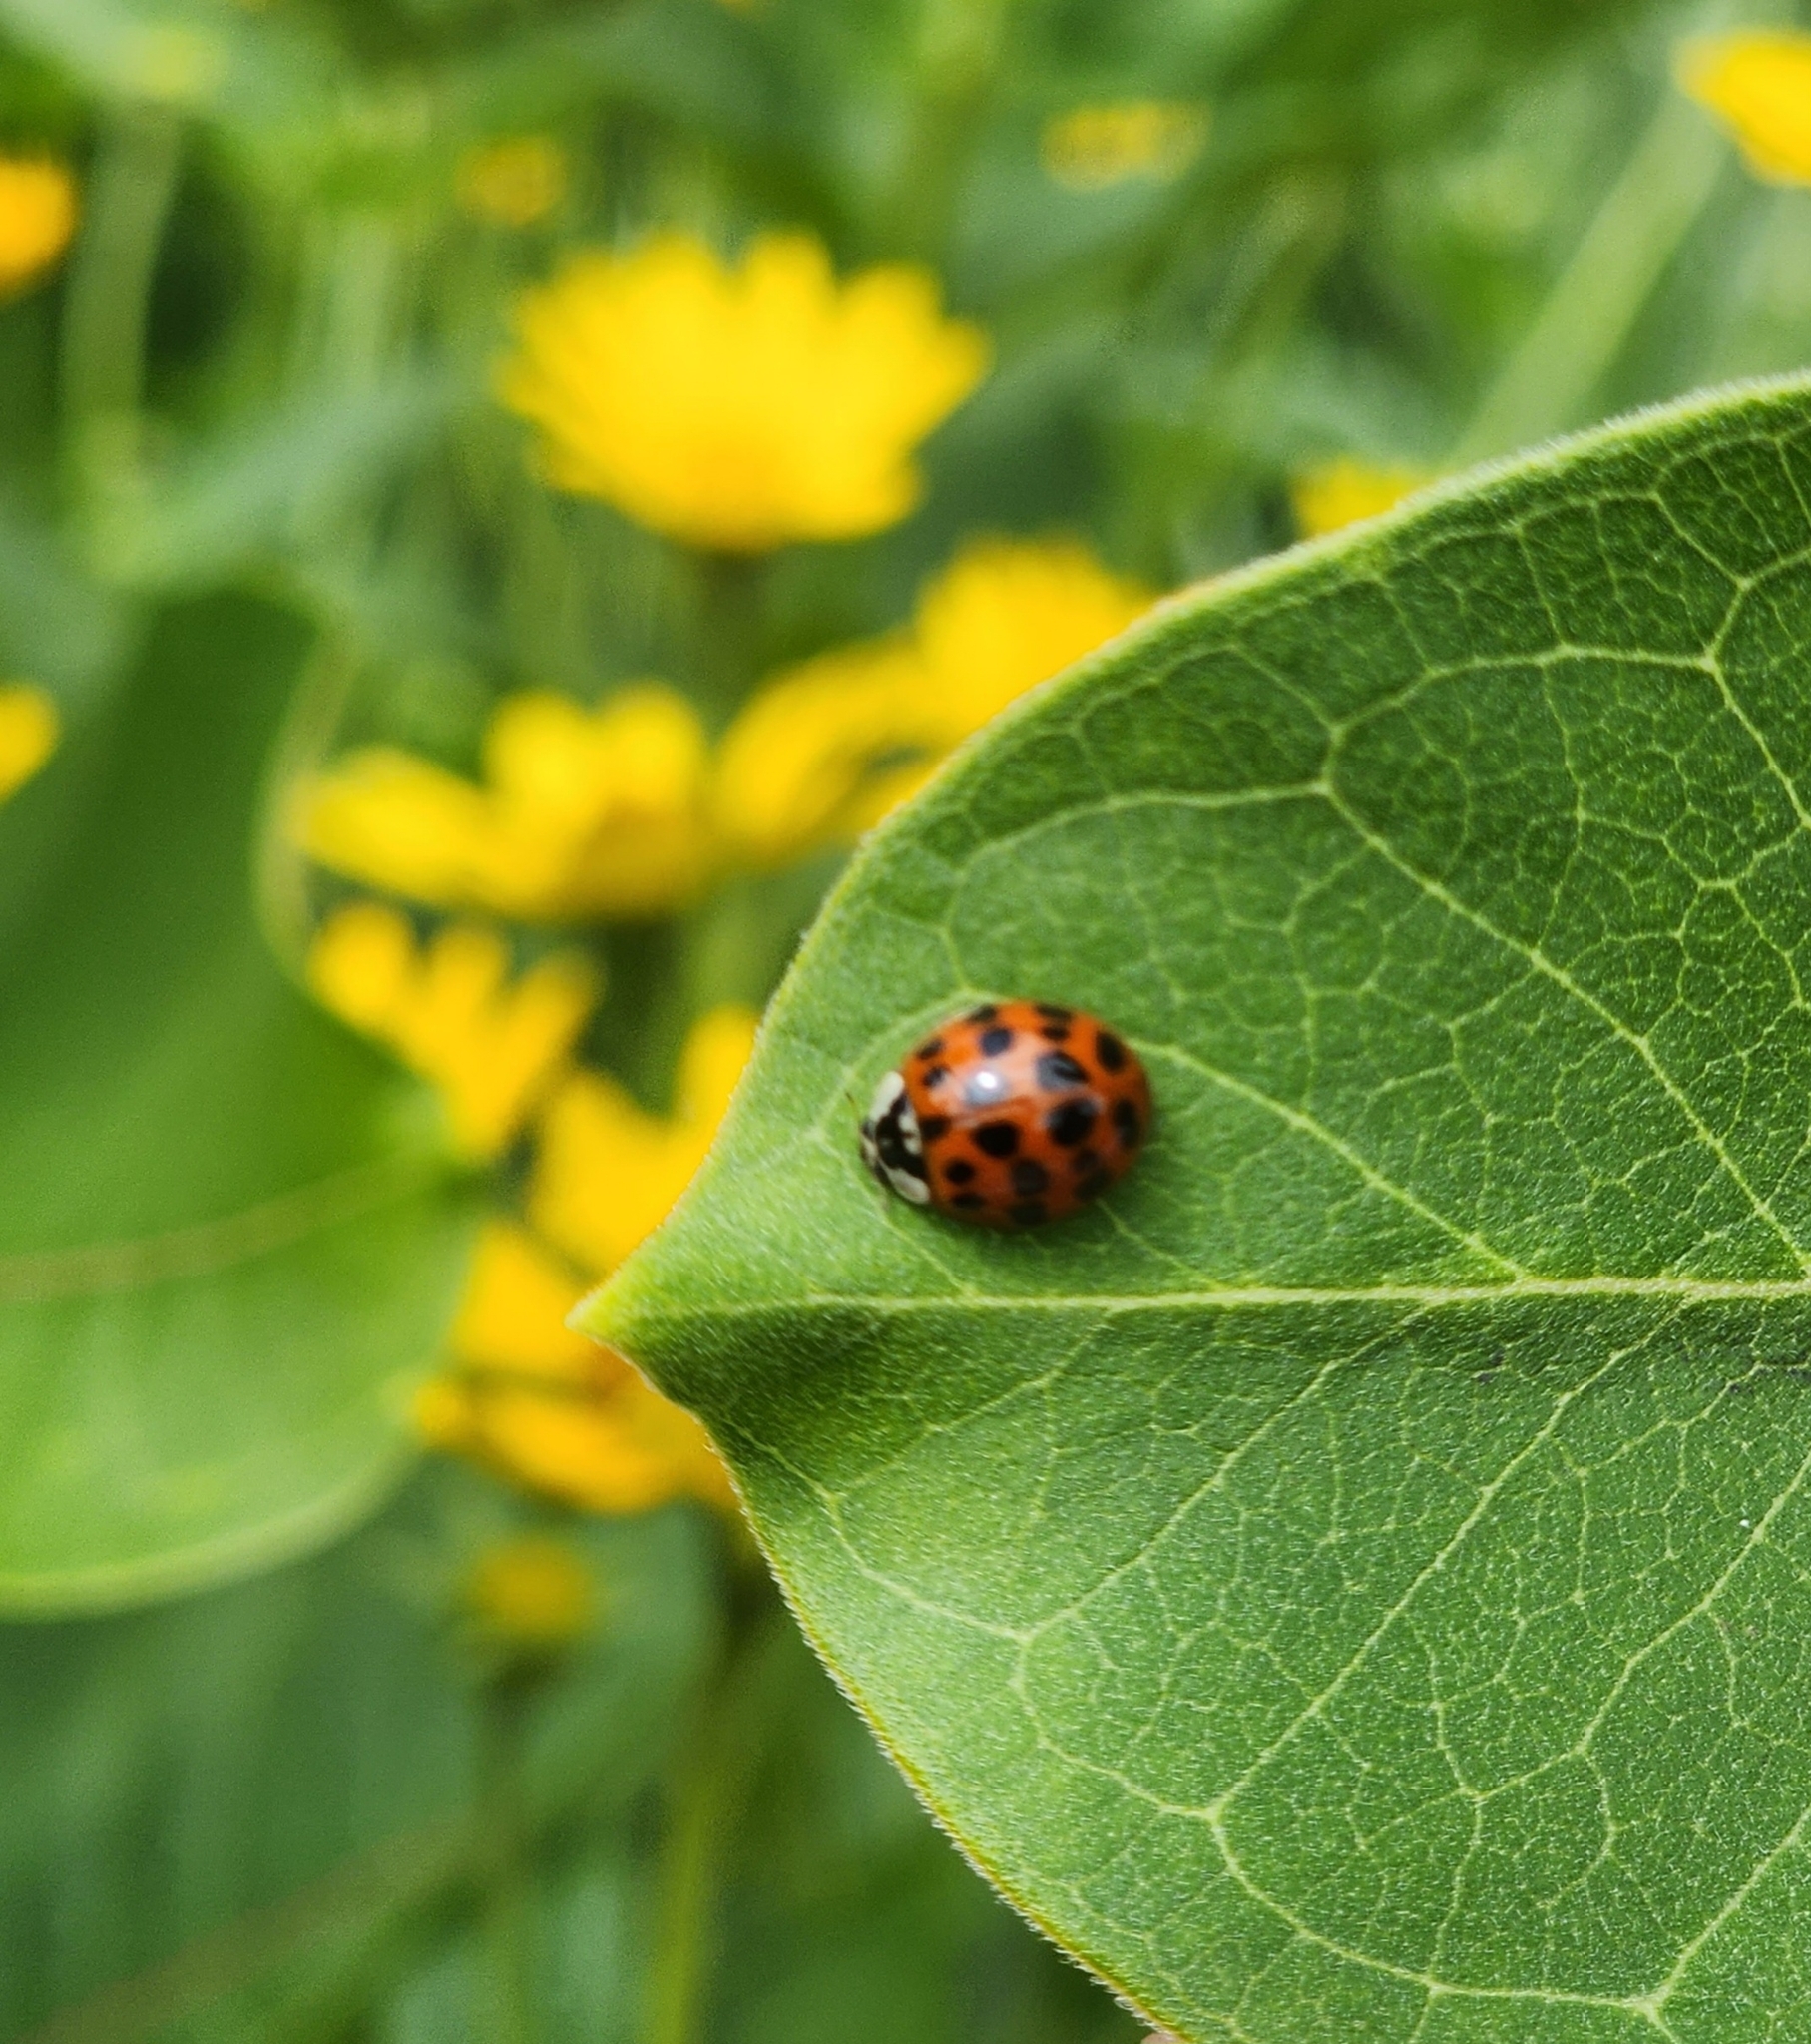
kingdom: Animalia
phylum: Arthropoda
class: Insecta
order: Coleoptera
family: Coccinellidae
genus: Harmonia
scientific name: Harmonia axyridis
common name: Harlequin ladybird
